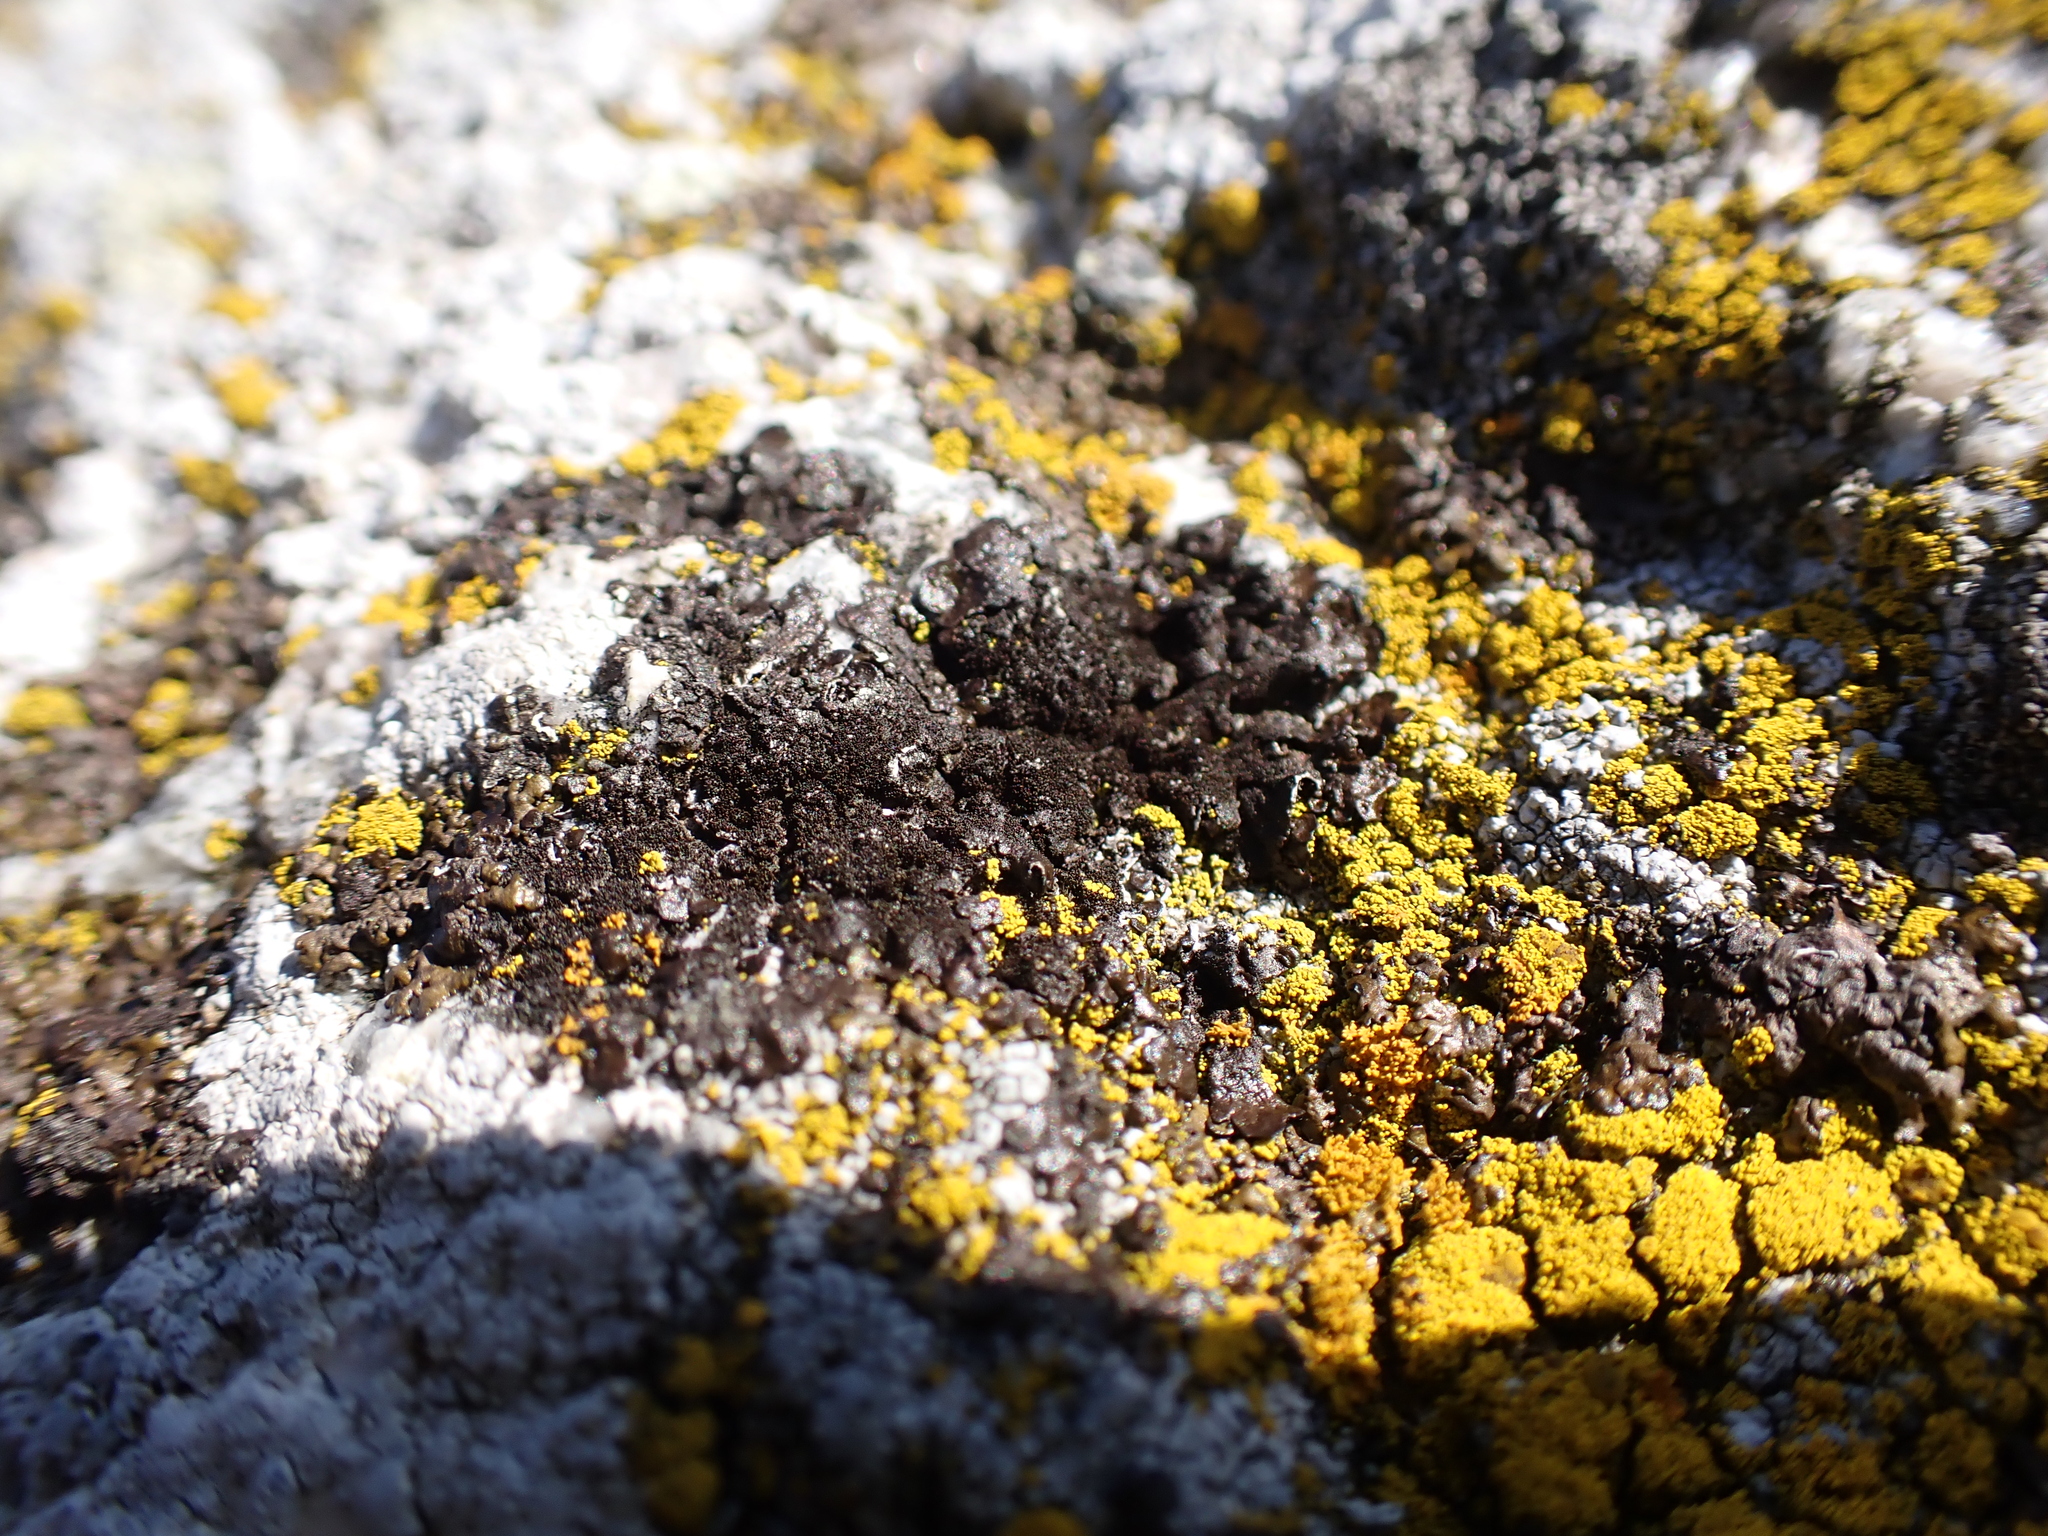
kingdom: Fungi
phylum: Ascomycota
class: Lecanoromycetes
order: Lecanorales
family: Parmeliaceae
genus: Melanelixia
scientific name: Melanelixia fuliginosa
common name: Shiny camouflage lichen
